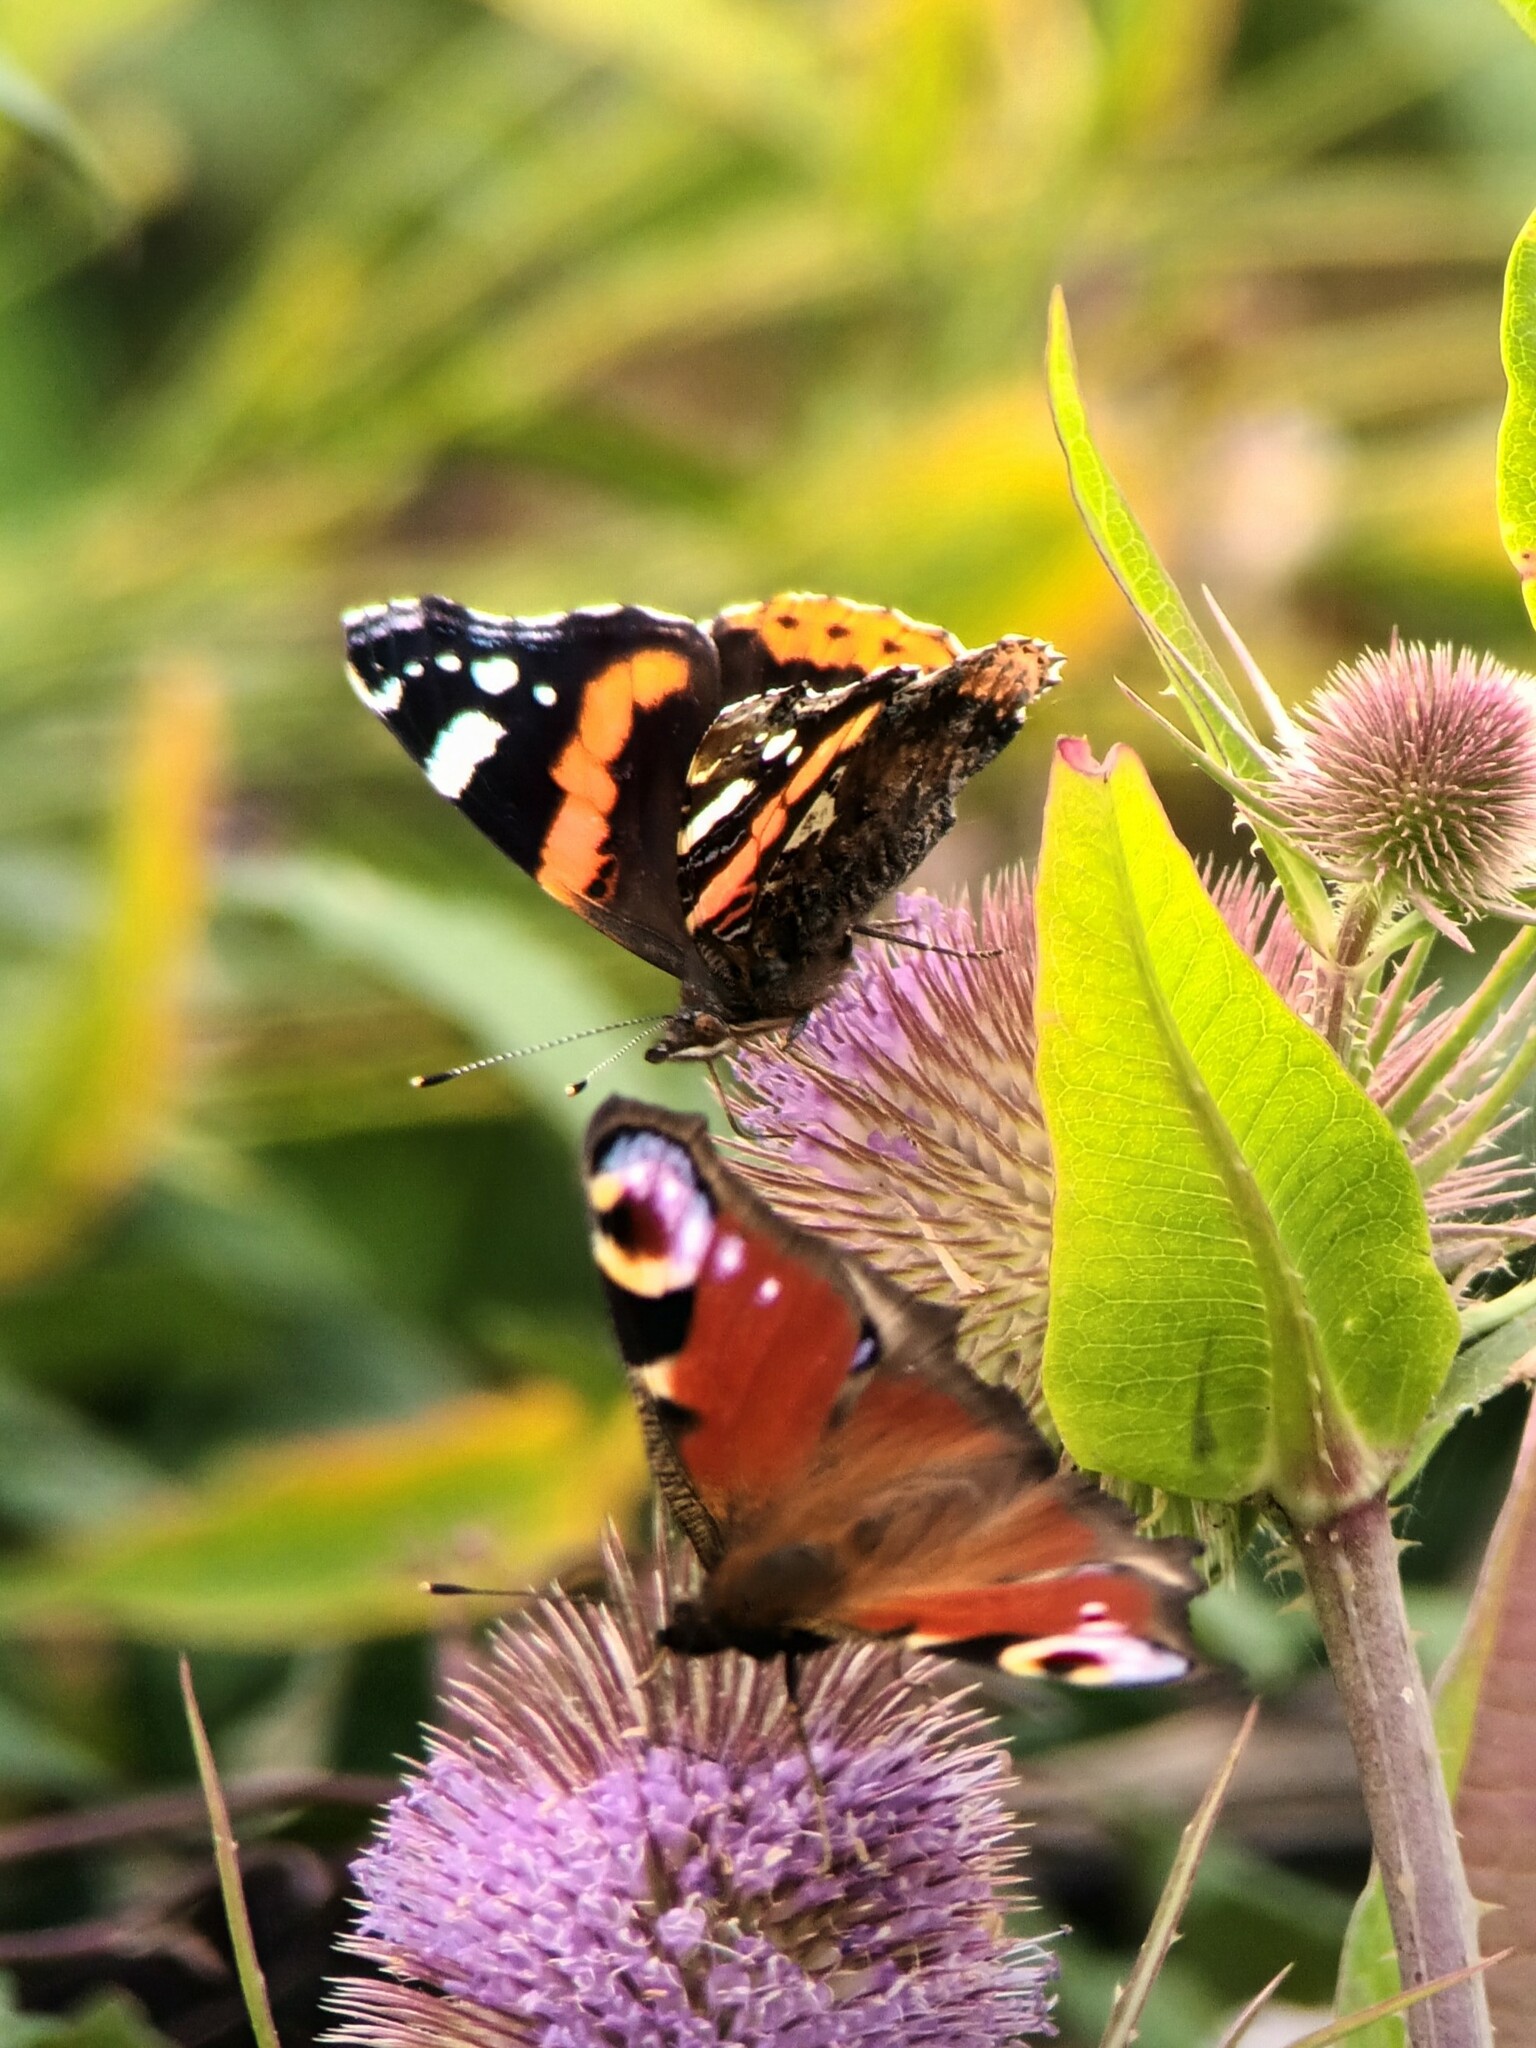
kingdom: Animalia
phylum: Arthropoda
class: Insecta
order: Lepidoptera
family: Nymphalidae
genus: Vanessa
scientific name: Vanessa atalanta
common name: Red admiral
